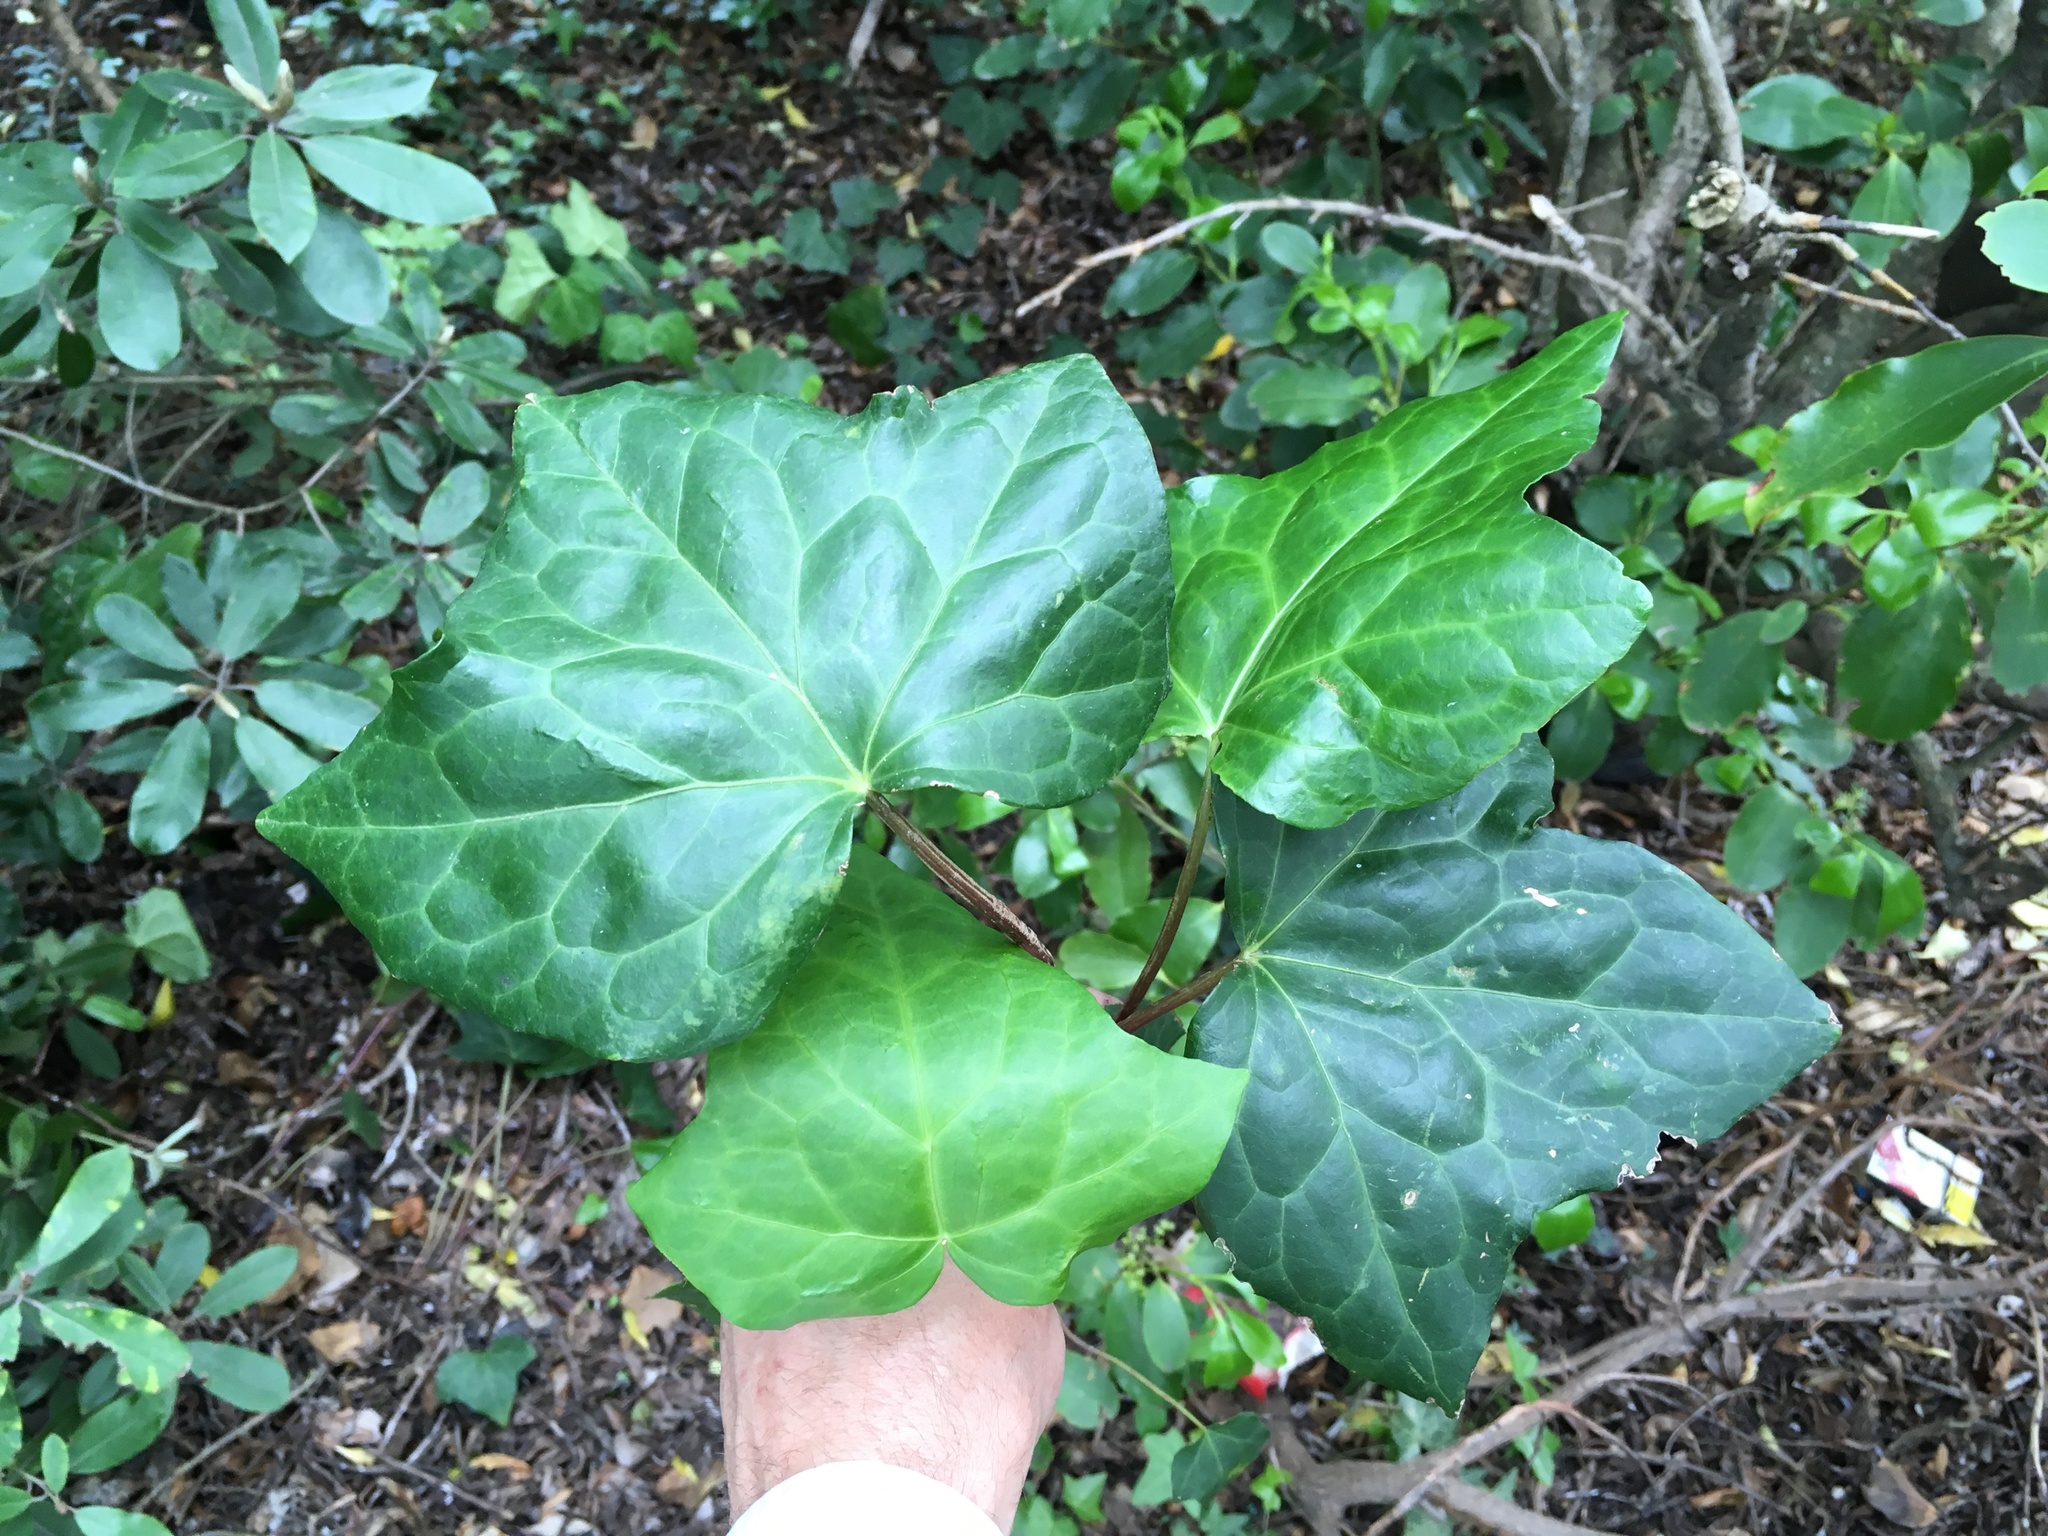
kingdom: Plantae
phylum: Tracheophyta
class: Magnoliopsida
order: Apiales
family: Araliaceae
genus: Hedera
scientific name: Hedera helix
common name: Ivy
